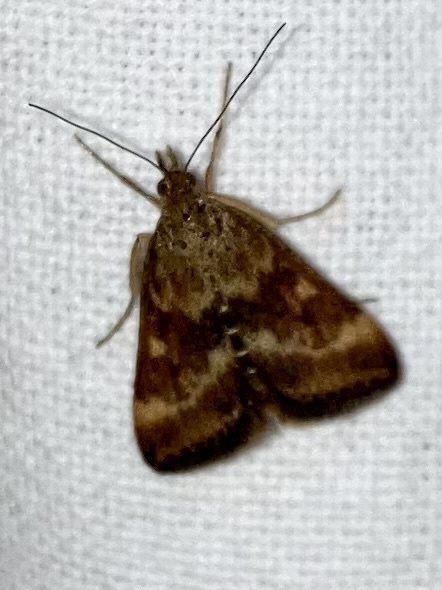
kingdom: Animalia
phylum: Arthropoda
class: Insecta
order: Lepidoptera
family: Crambidae
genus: Pyrausta
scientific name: Pyrausta despicata
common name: Straw-barred pearl
